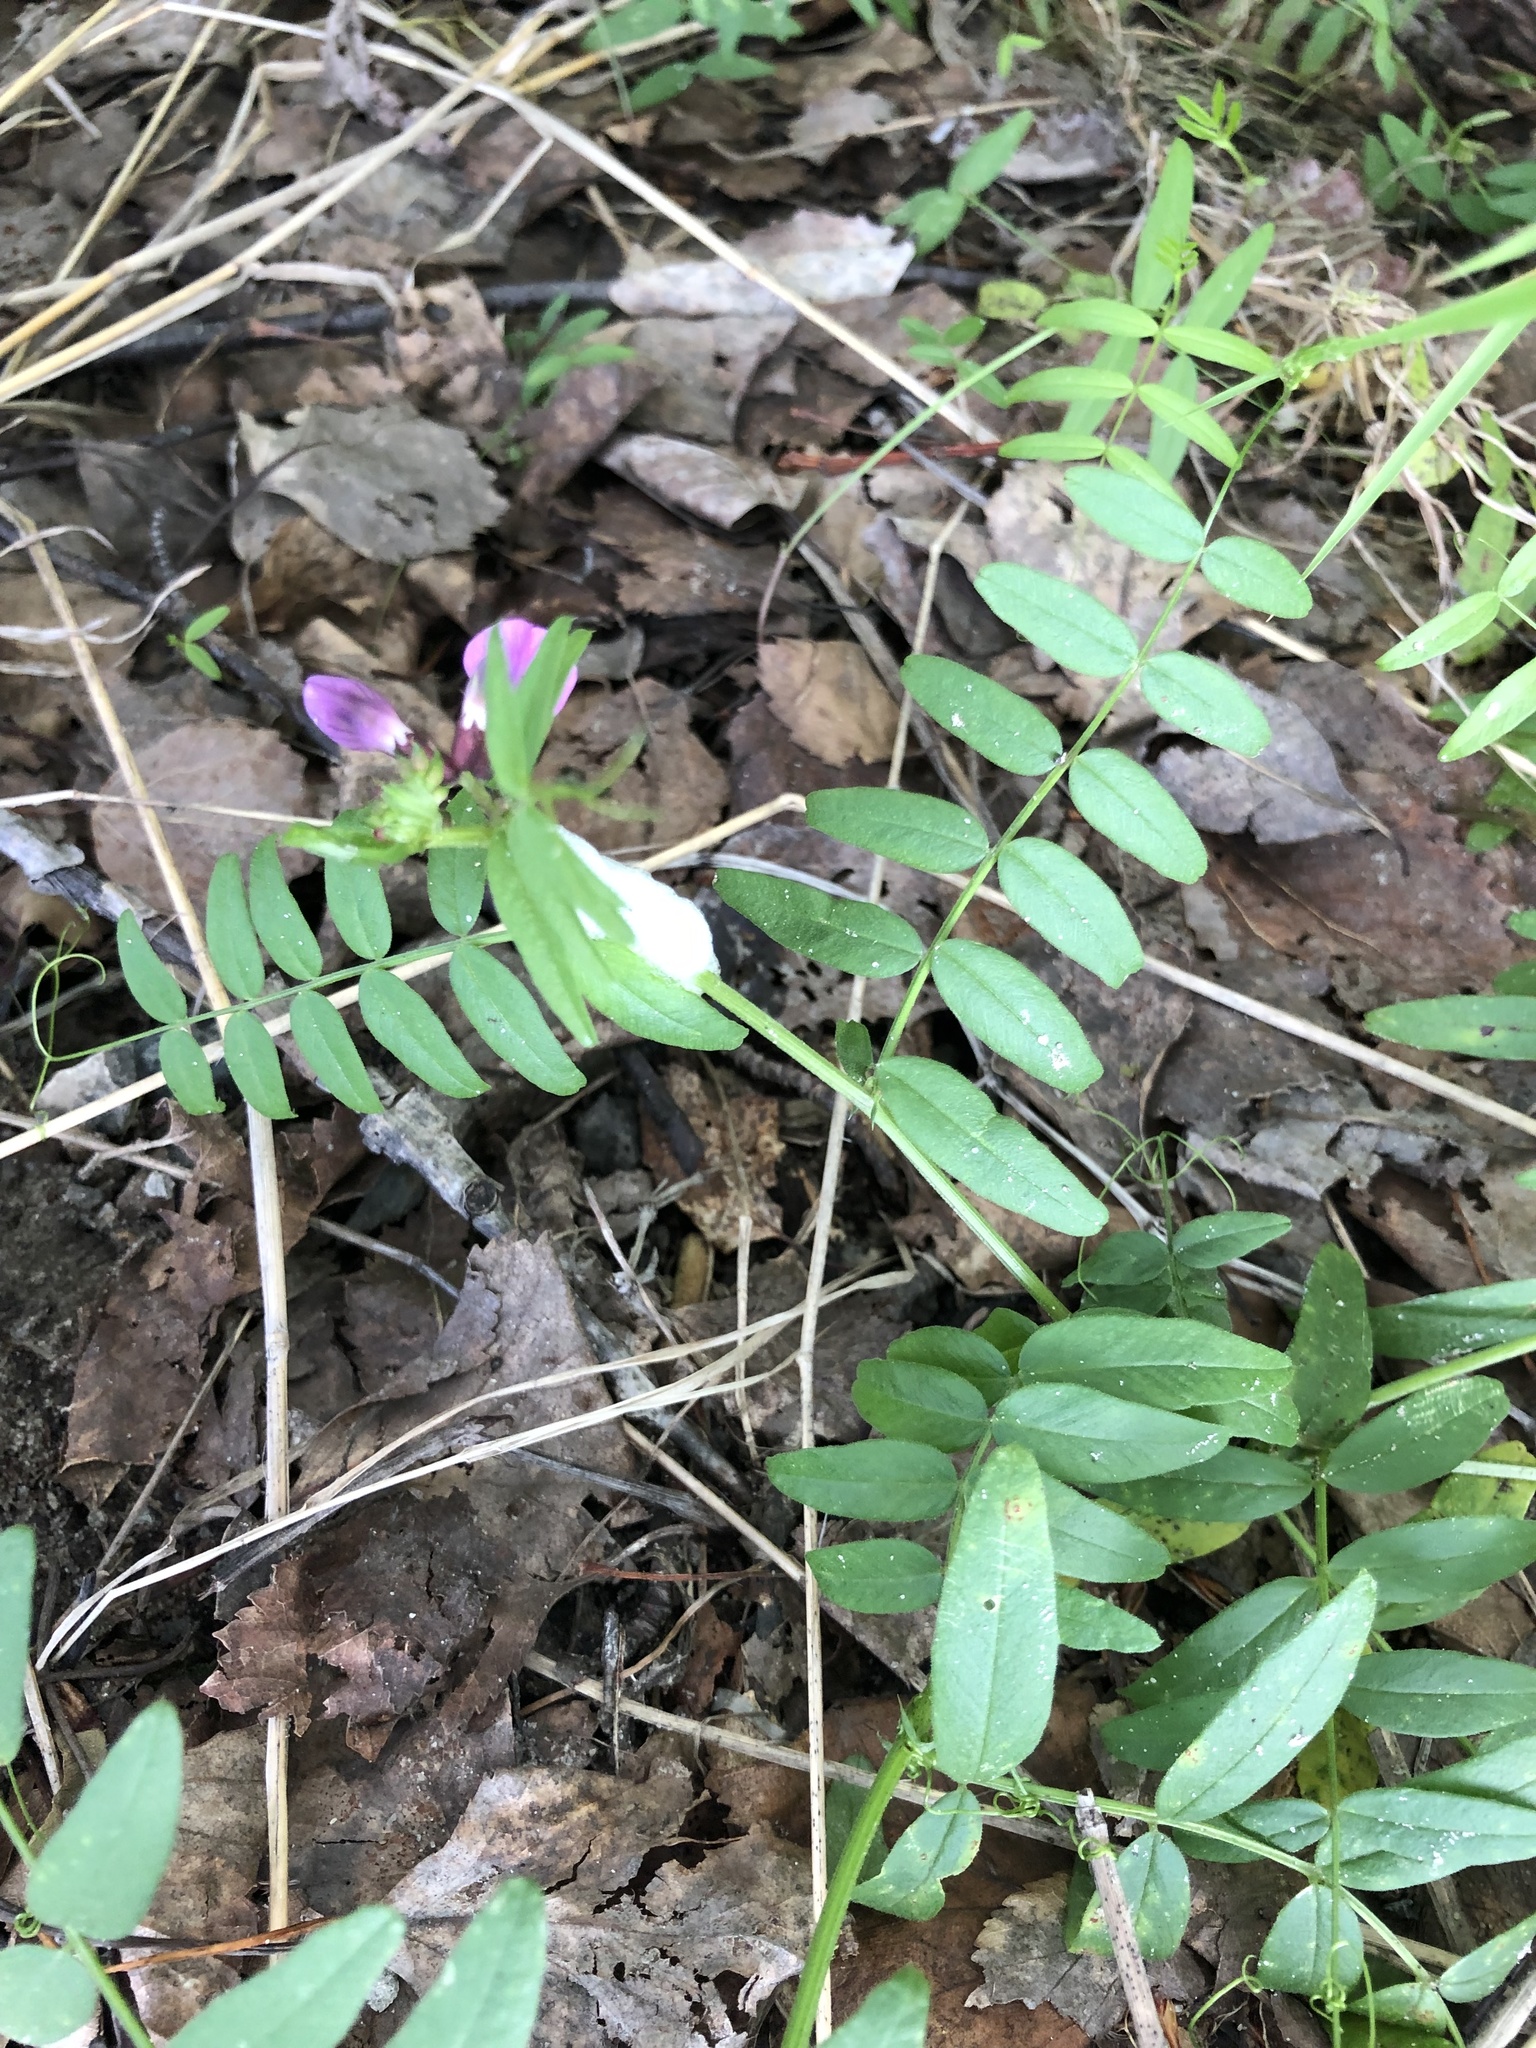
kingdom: Plantae
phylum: Tracheophyta
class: Magnoliopsida
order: Fabales
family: Fabaceae
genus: Vicia
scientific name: Vicia sepium
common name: Bush vetch
